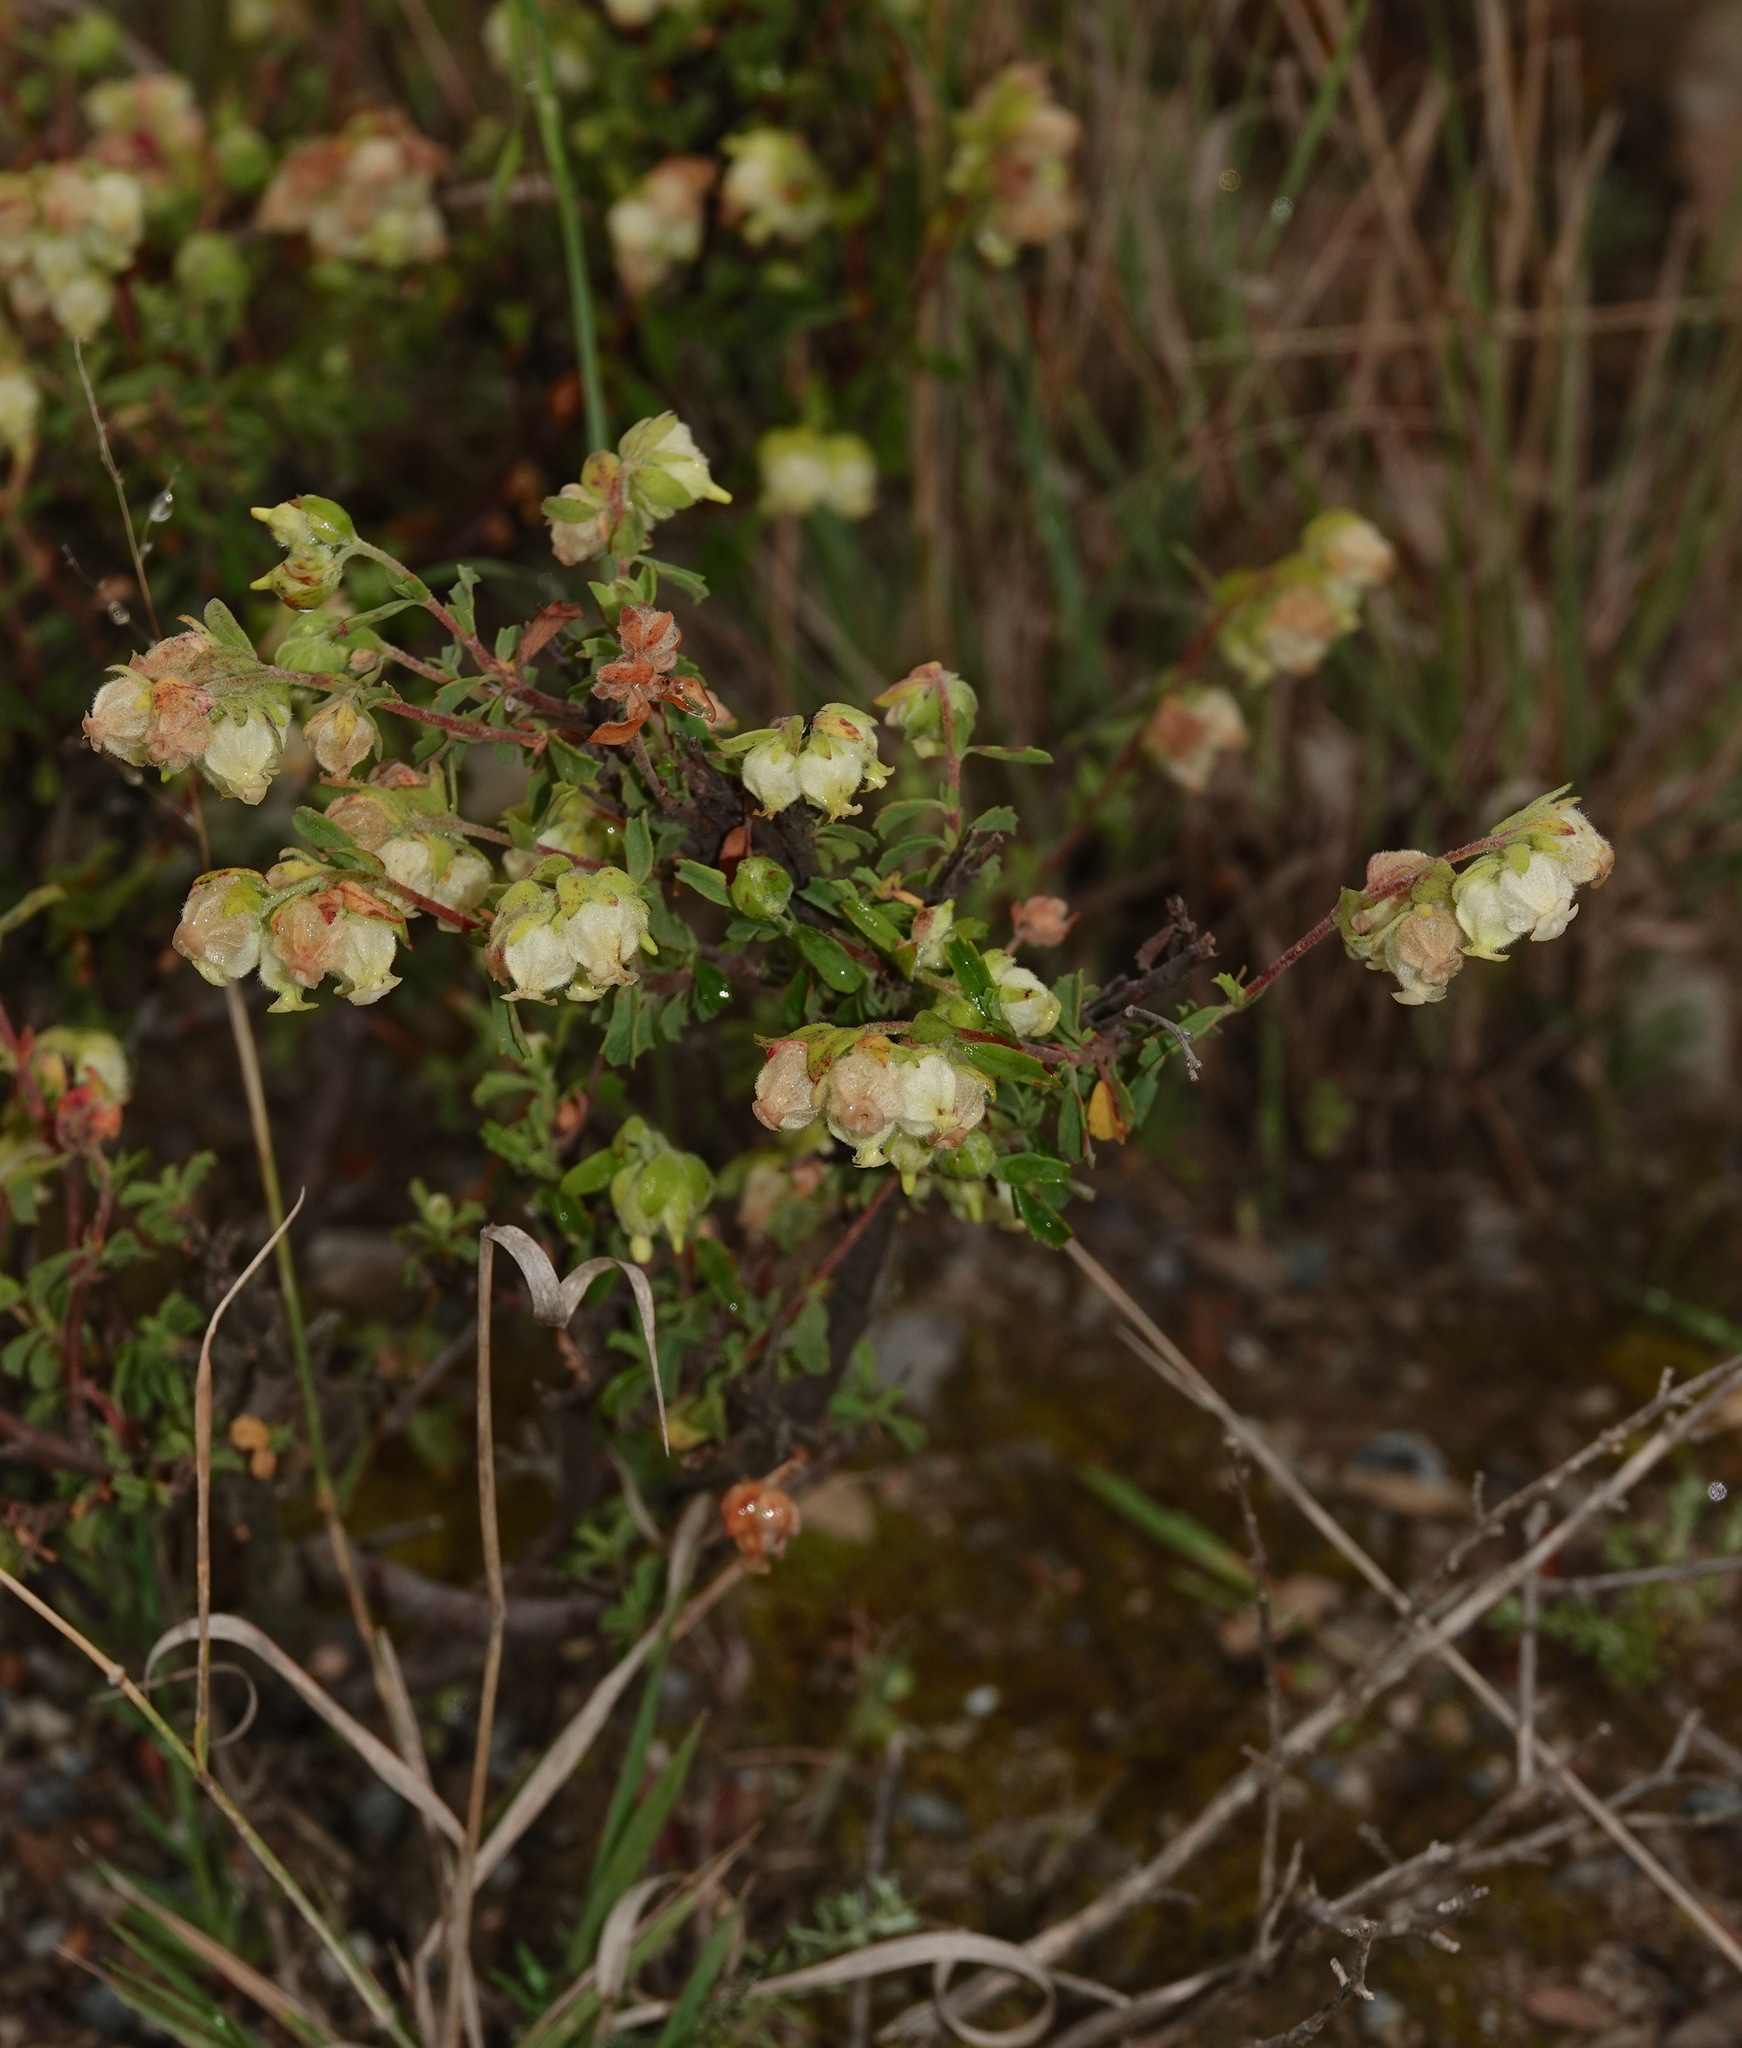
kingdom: Plantae
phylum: Tracheophyta
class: Magnoliopsida
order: Malvales
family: Malvaceae
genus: Hermannia
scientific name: Hermannia hyssopifolia
